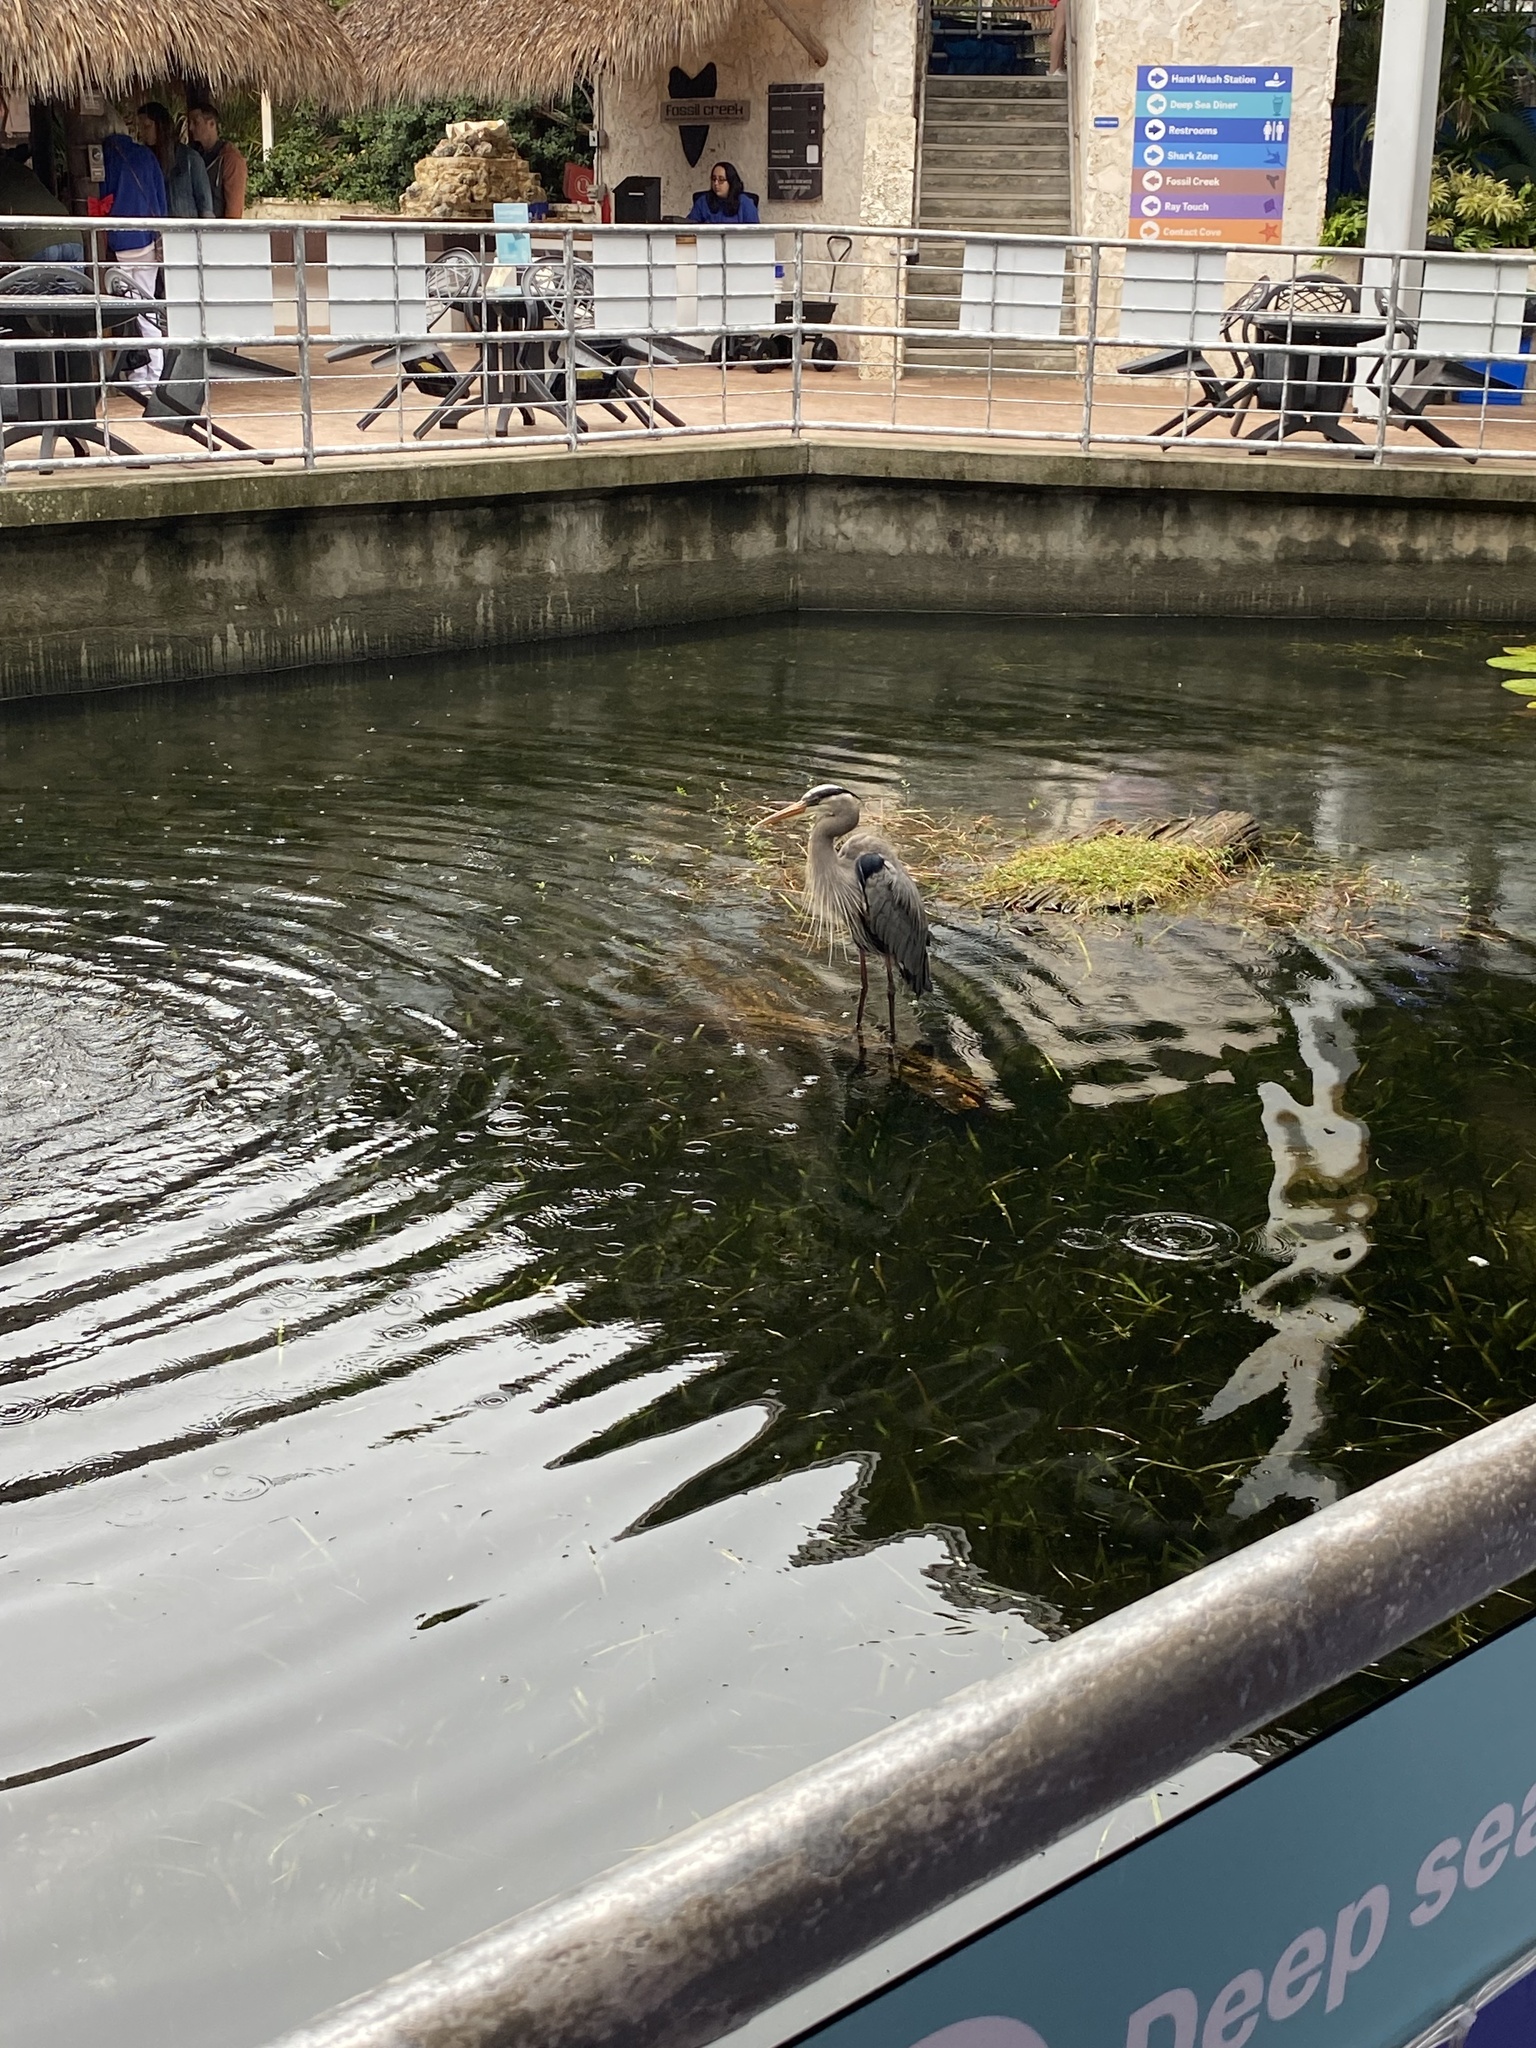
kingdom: Animalia
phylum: Chordata
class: Aves
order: Pelecaniformes
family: Ardeidae
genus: Ardea
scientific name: Ardea herodias
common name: Great blue heron
